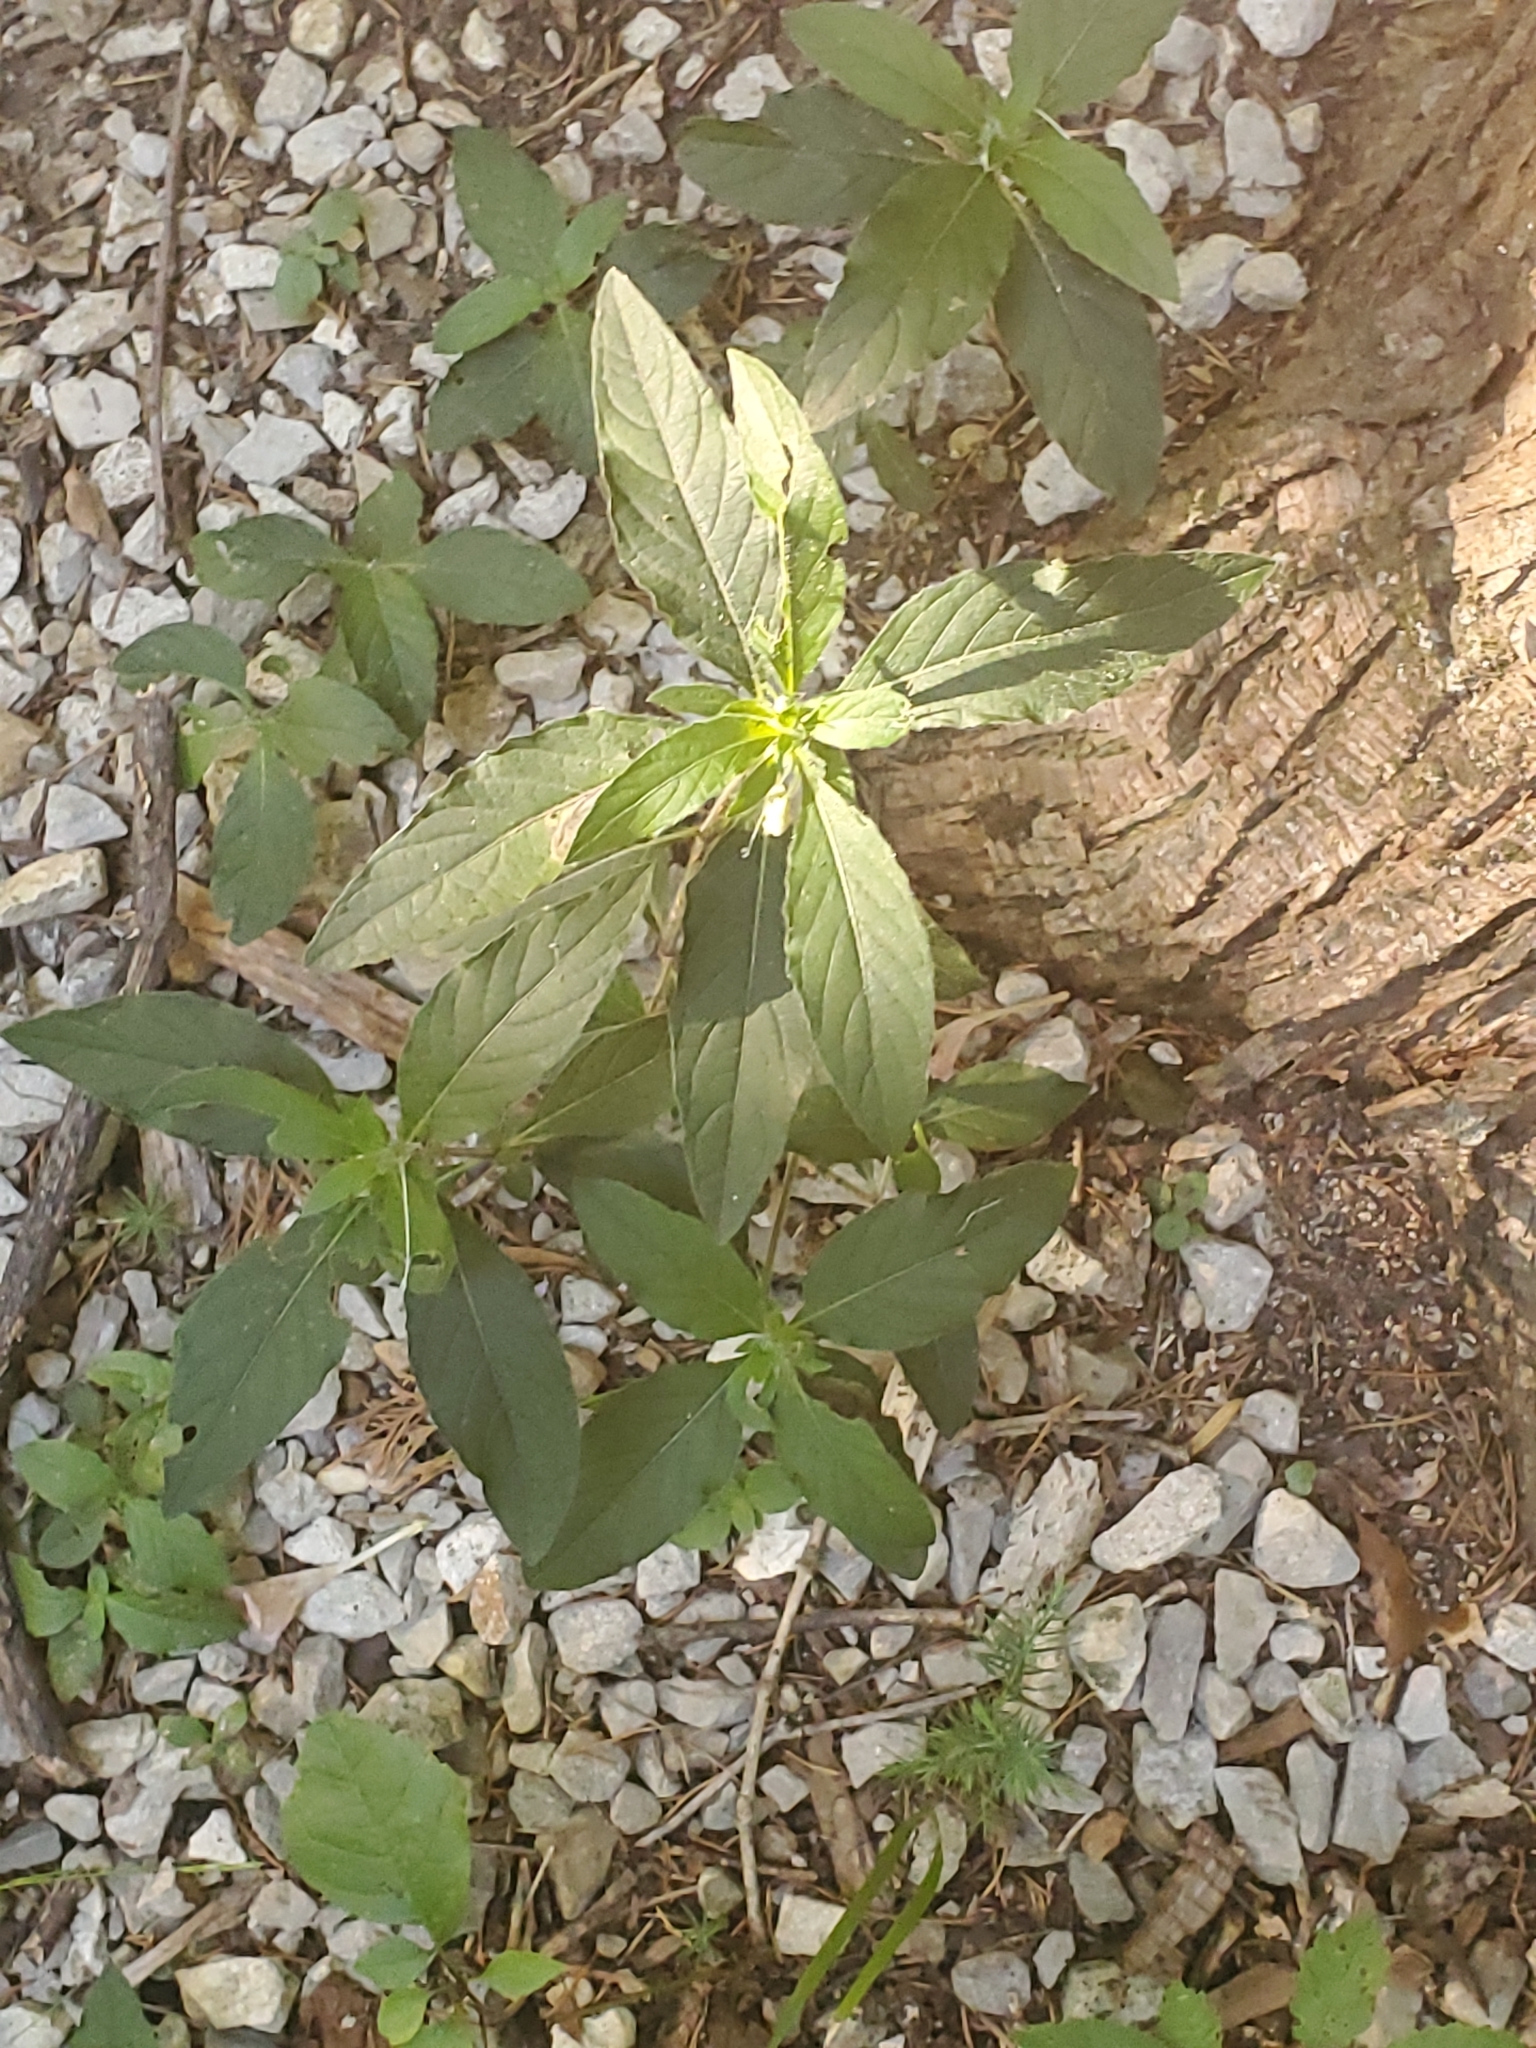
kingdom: Plantae
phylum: Tracheophyta
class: Magnoliopsida
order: Lamiales
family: Acanthaceae
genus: Ruellia
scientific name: Ruellia caroliniensis
